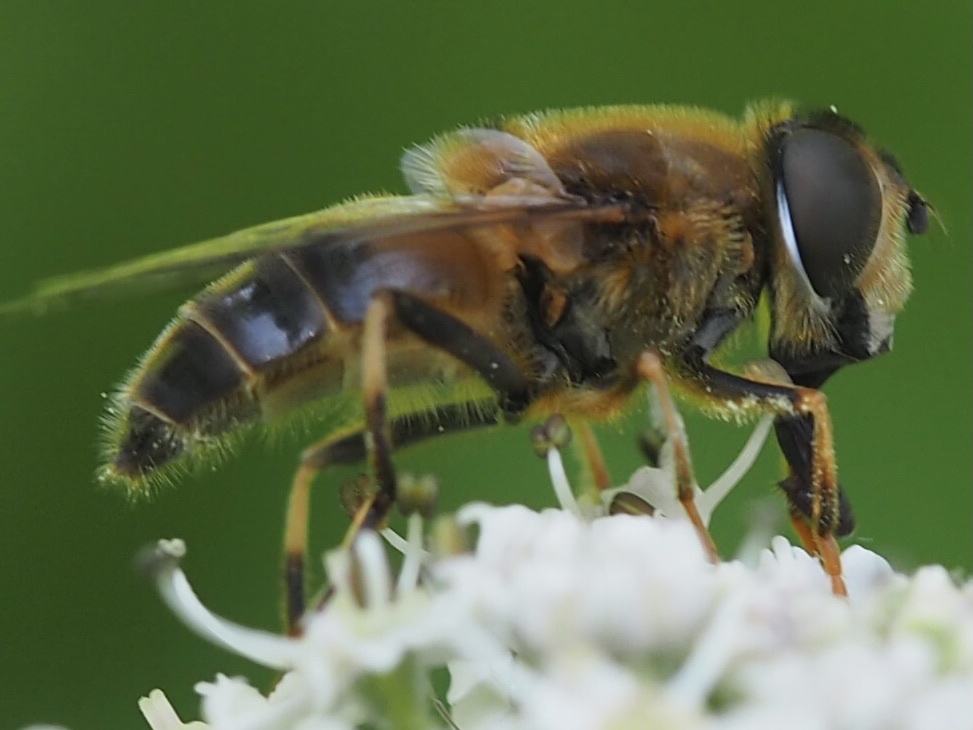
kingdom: Animalia
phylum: Arthropoda
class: Insecta
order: Diptera
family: Syrphidae
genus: Eristalis
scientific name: Eristalis pertinax
